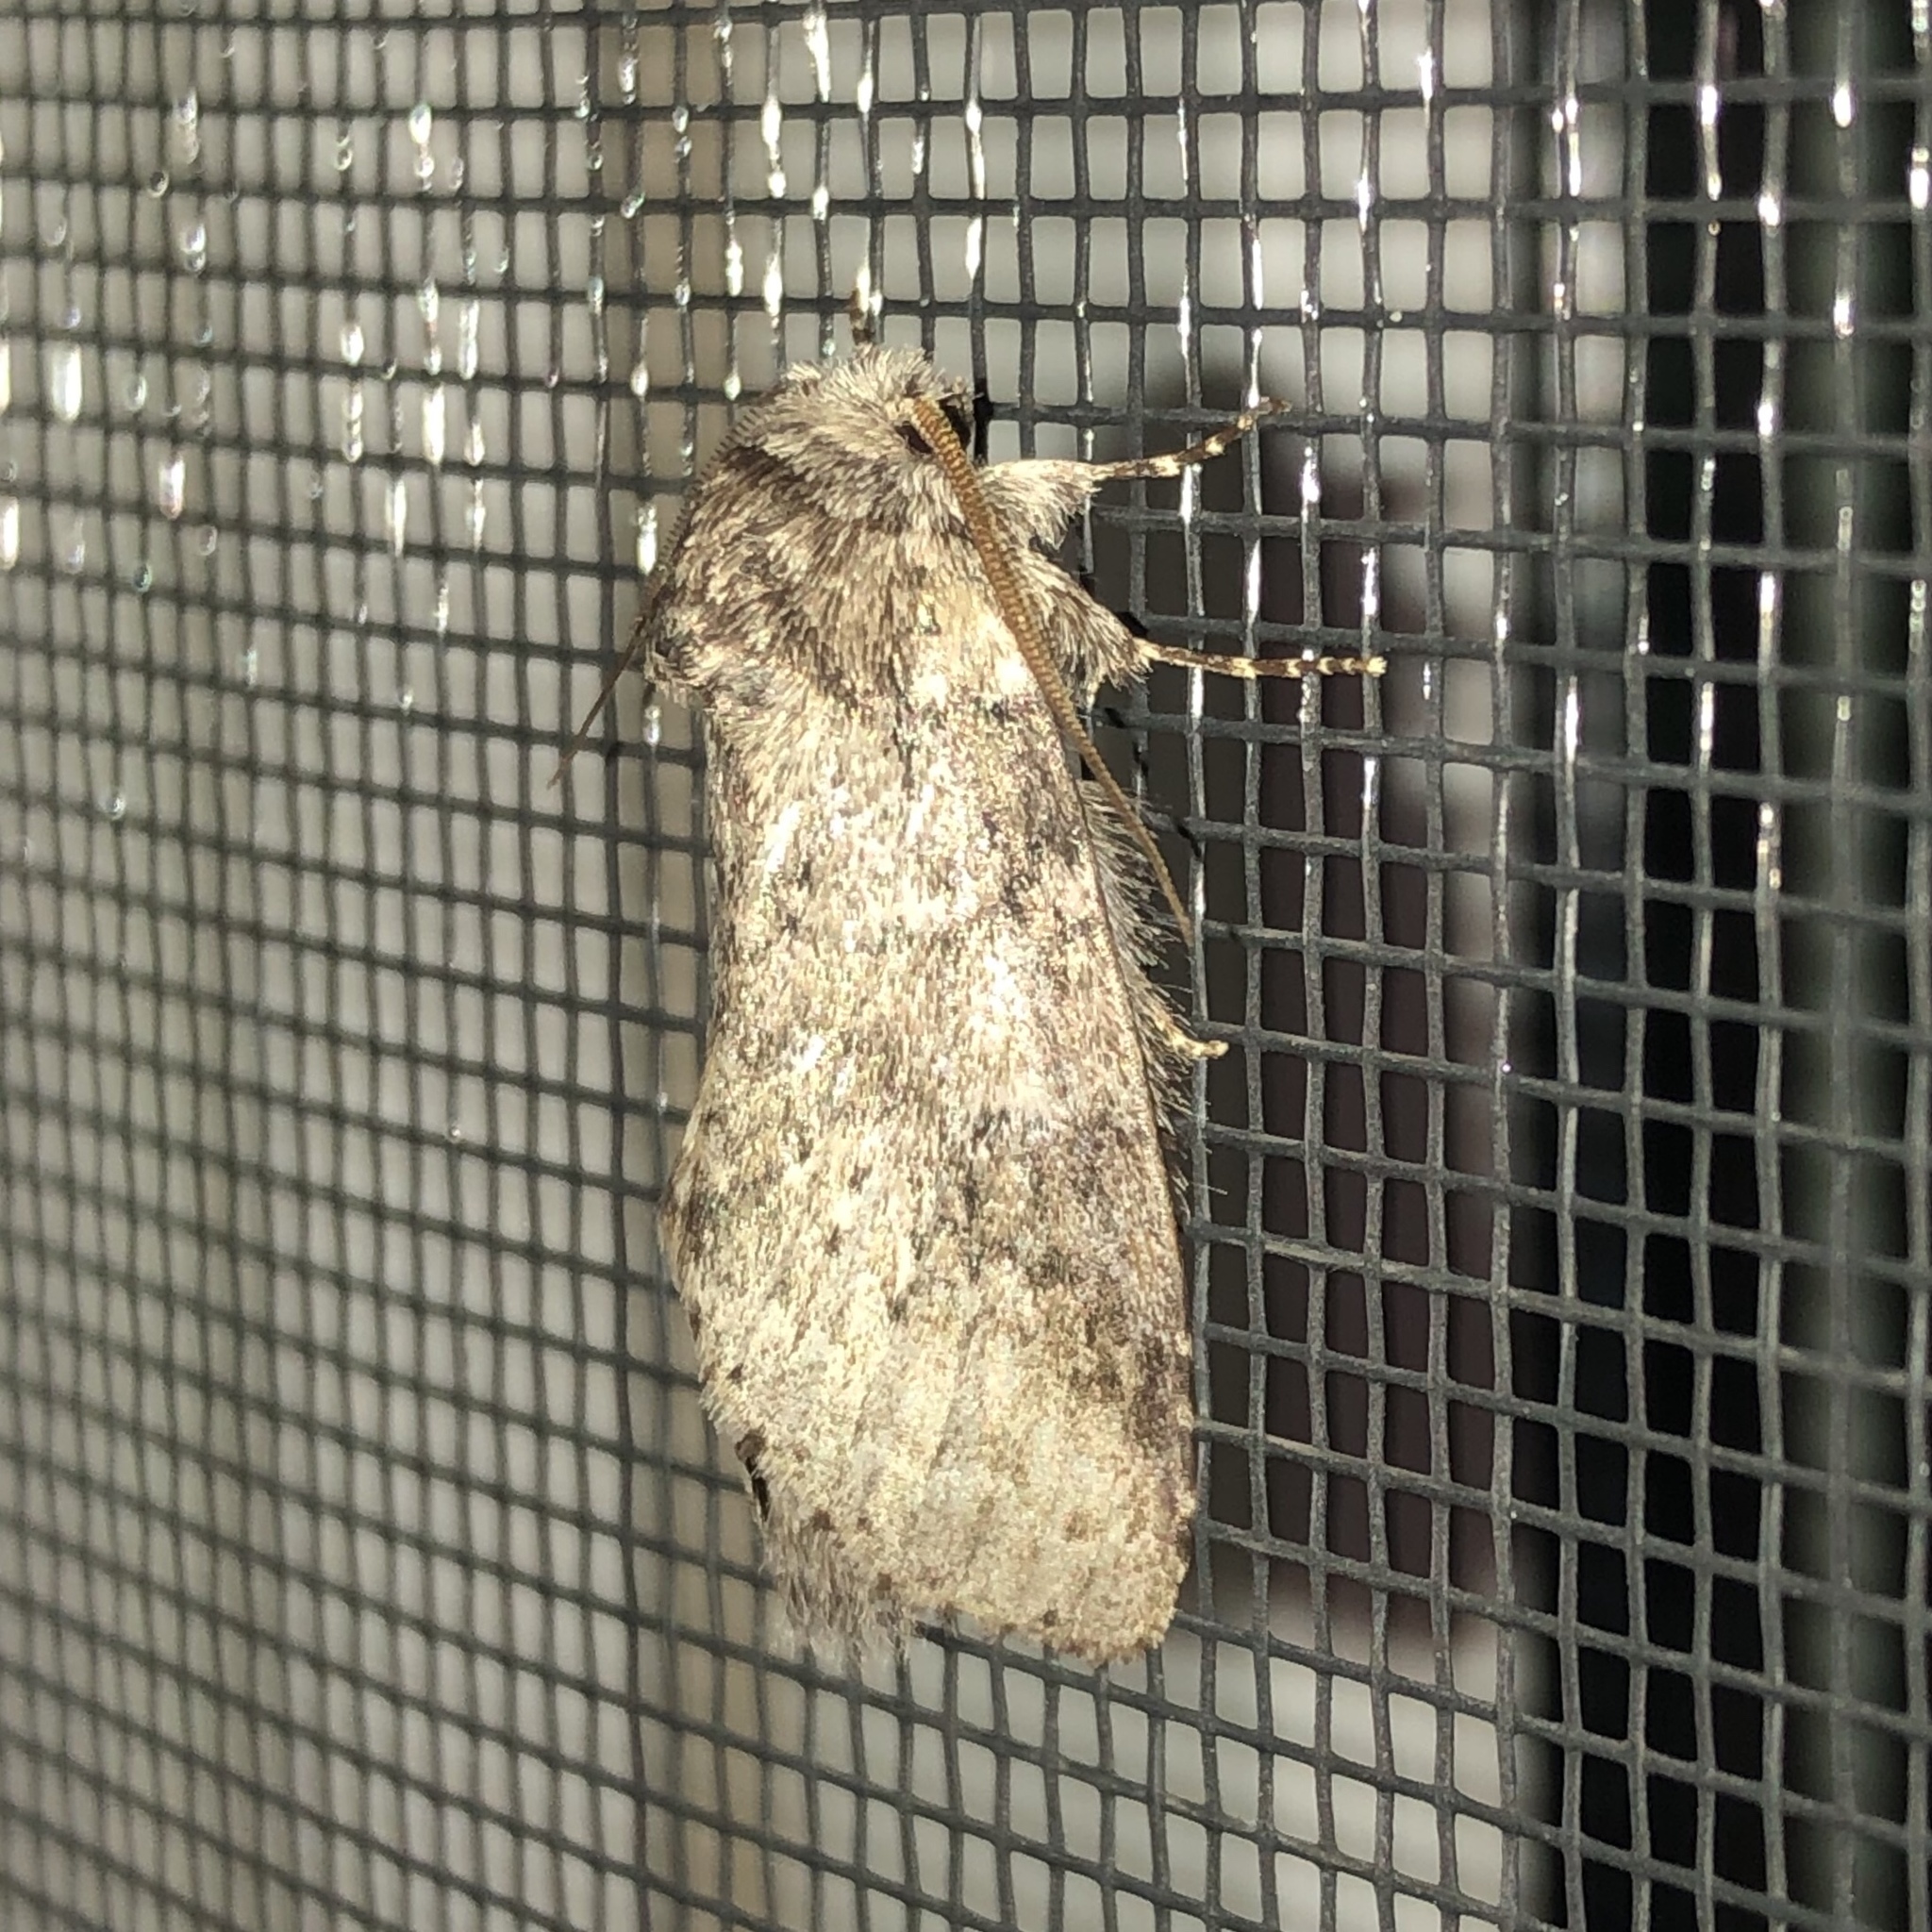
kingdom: Animalia
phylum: Arthropoda
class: Insecta
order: Lepidoptera
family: Notodontidae
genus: Lochmaeus
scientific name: Lochmaeus manteo
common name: Variable oakleaf caterpillar moth
